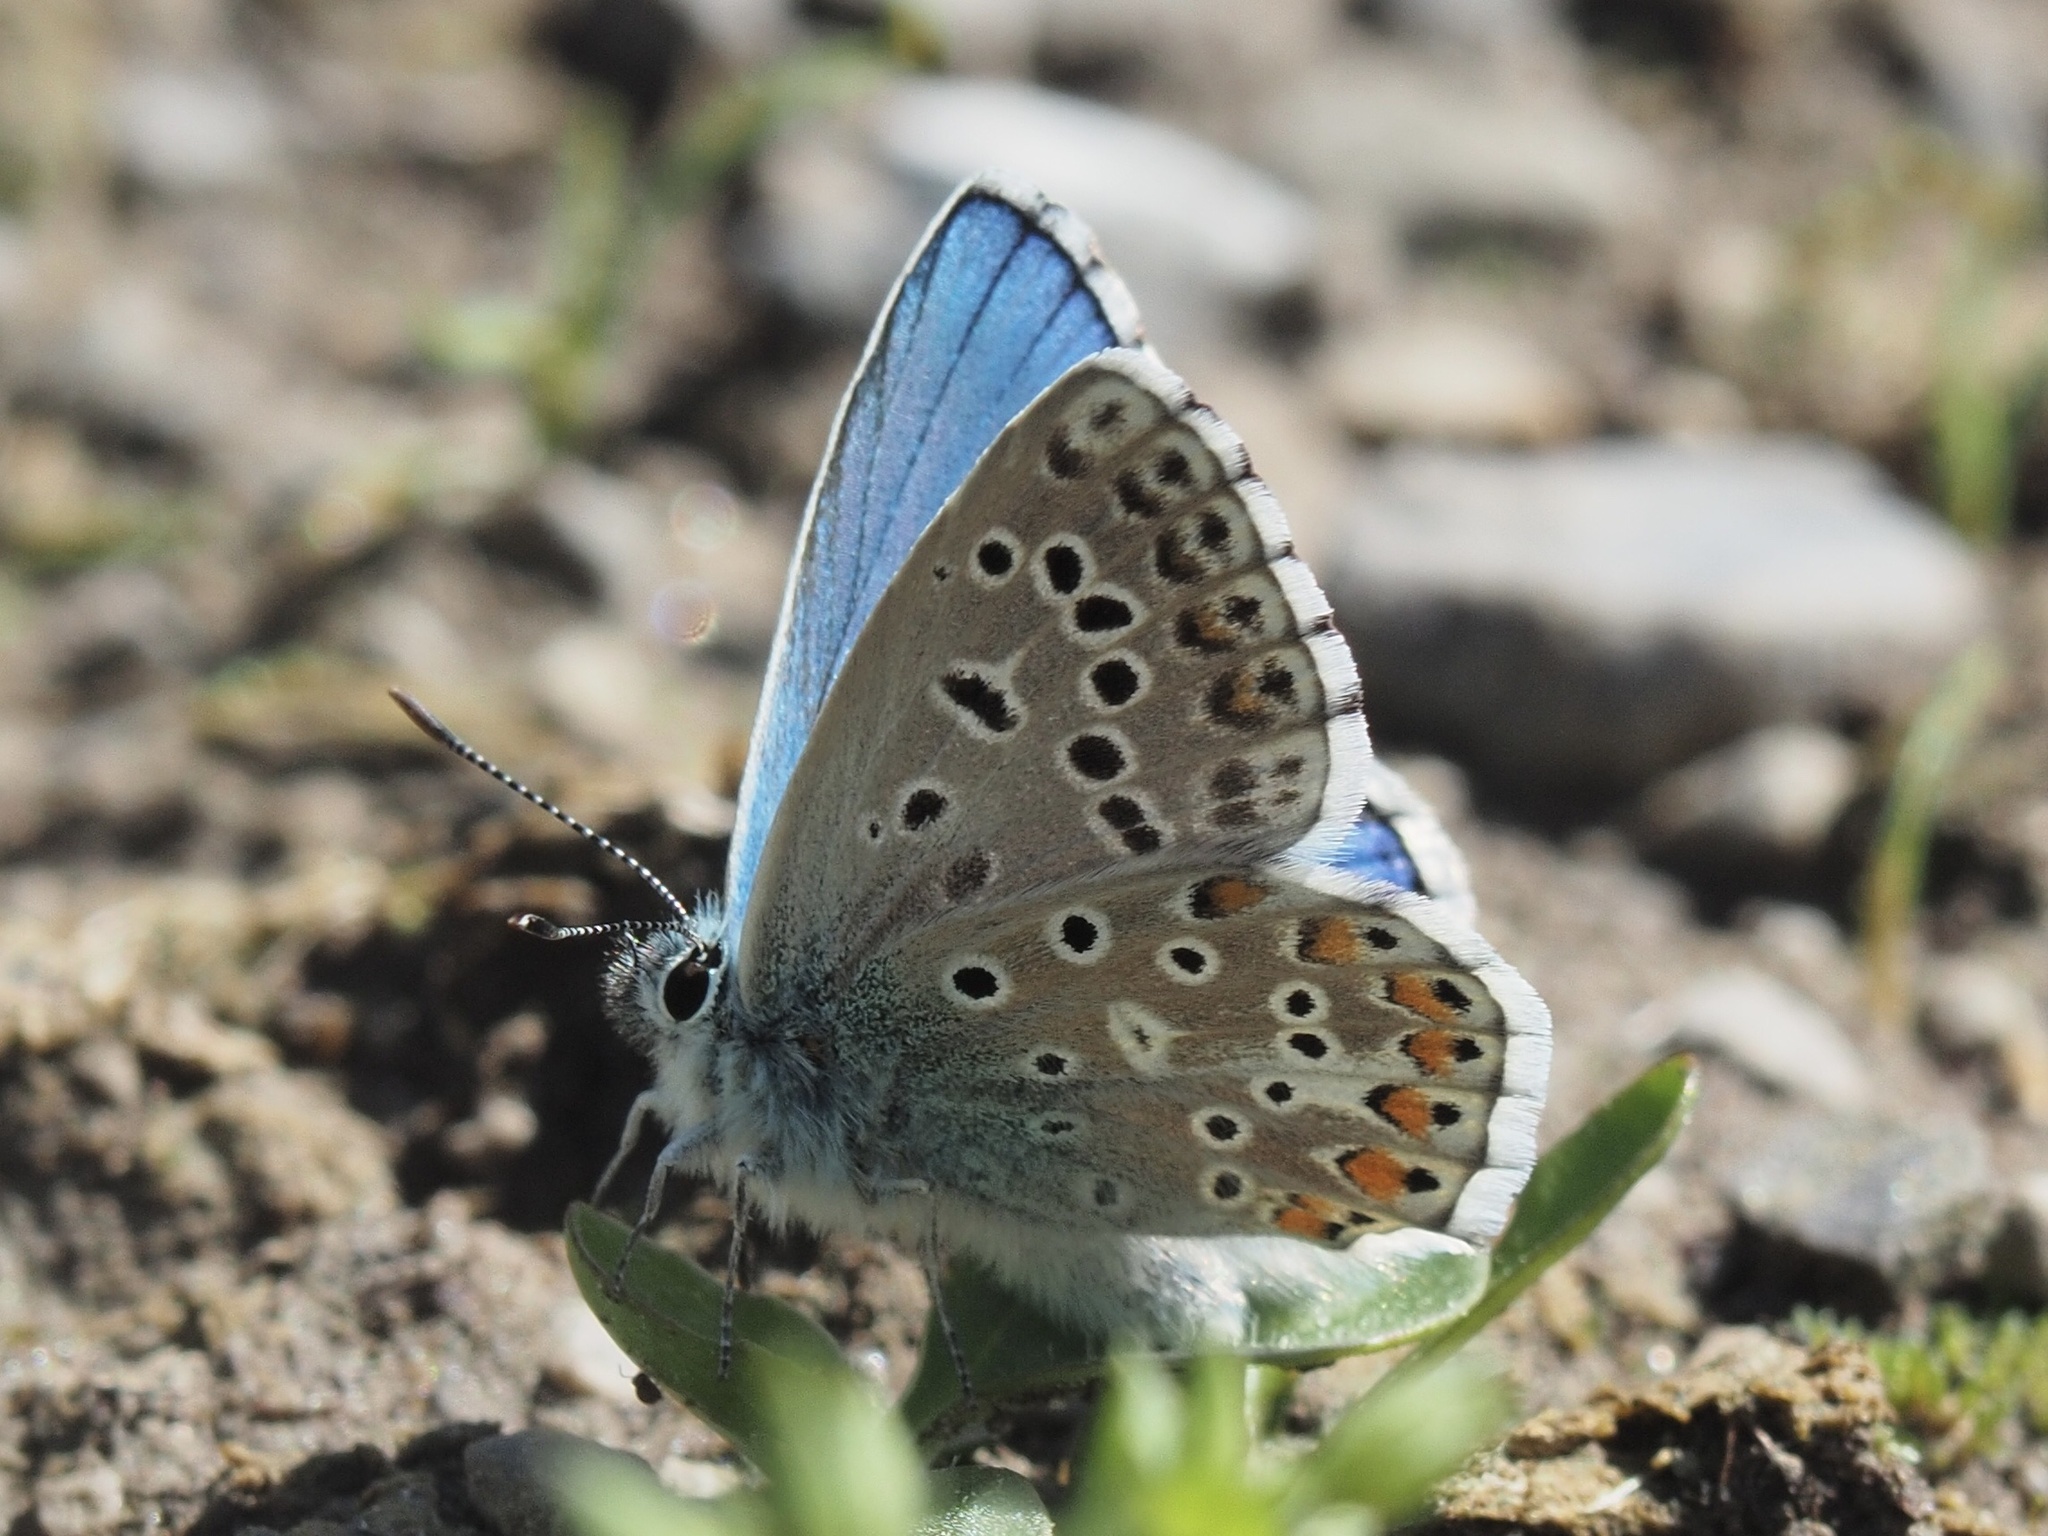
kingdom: Animalia
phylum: Arthropoda
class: Insecta
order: Lepidoptera
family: Lycaenidae
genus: Lysandra
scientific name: Lysandra bellargus
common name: Adonis blue
